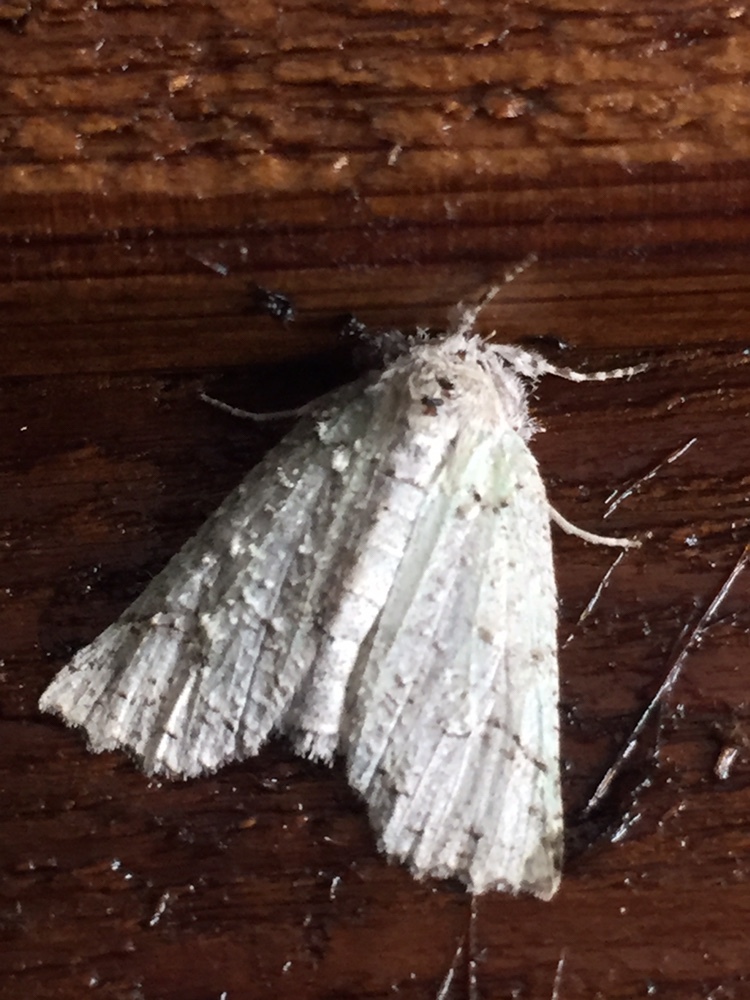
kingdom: Animalia
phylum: Arthropoda
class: Insecta
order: Lepidoptera
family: Geometridae
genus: Declana
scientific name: Declana floccosa
